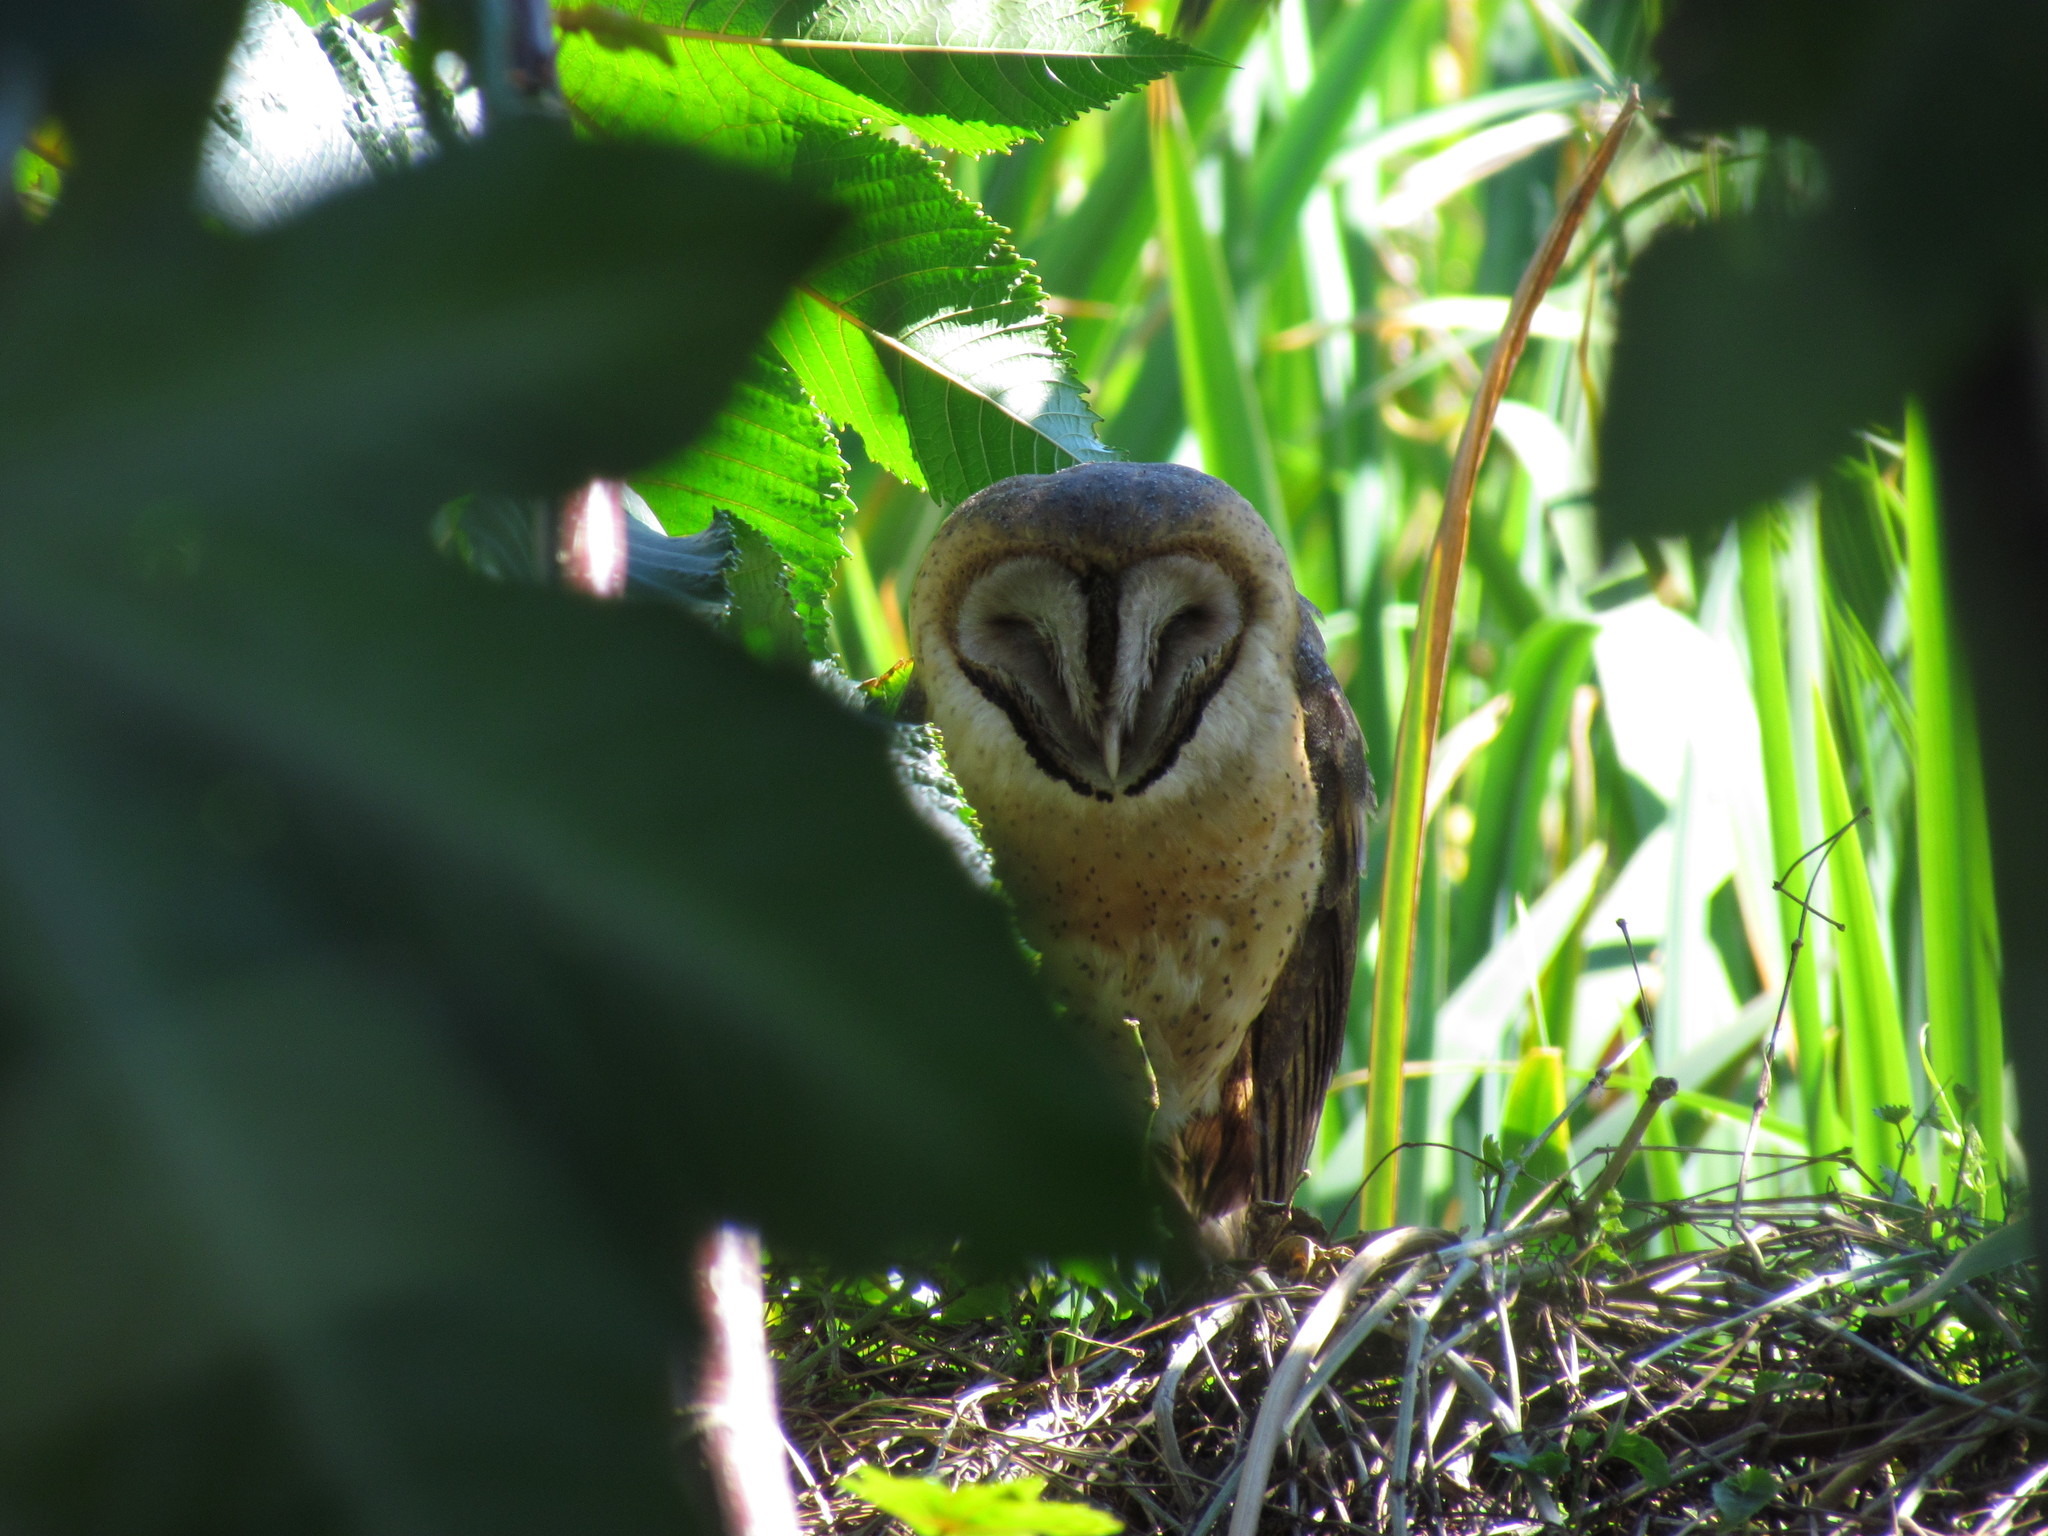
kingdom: Animalia
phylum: Chordata
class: Aves
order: Strigiformes
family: Tytonidae
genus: Tyto
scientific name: Tyto alba
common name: Barn owl
